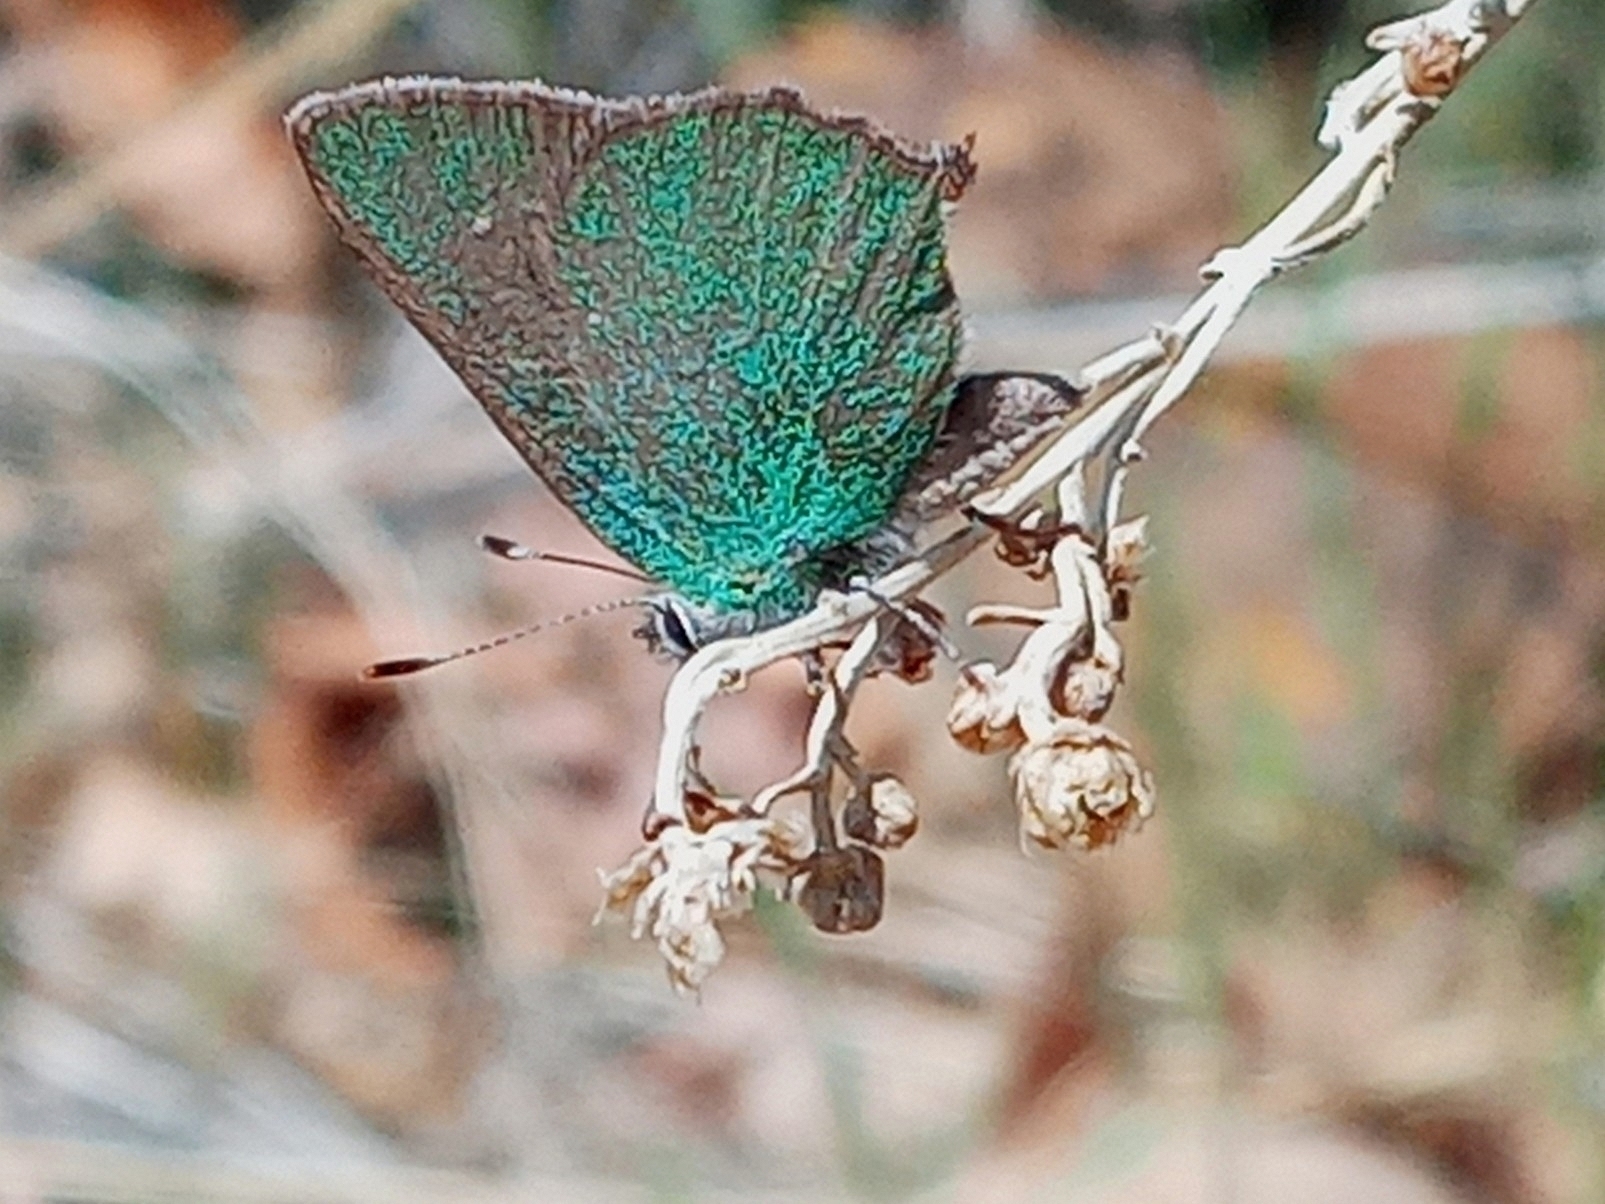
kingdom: Animalia
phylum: Arthropoda
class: Insecta
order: Lepidoptera
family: Lycaenidae
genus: Callophrys
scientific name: Callophrys dumetorum
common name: Bramble hairstreak
